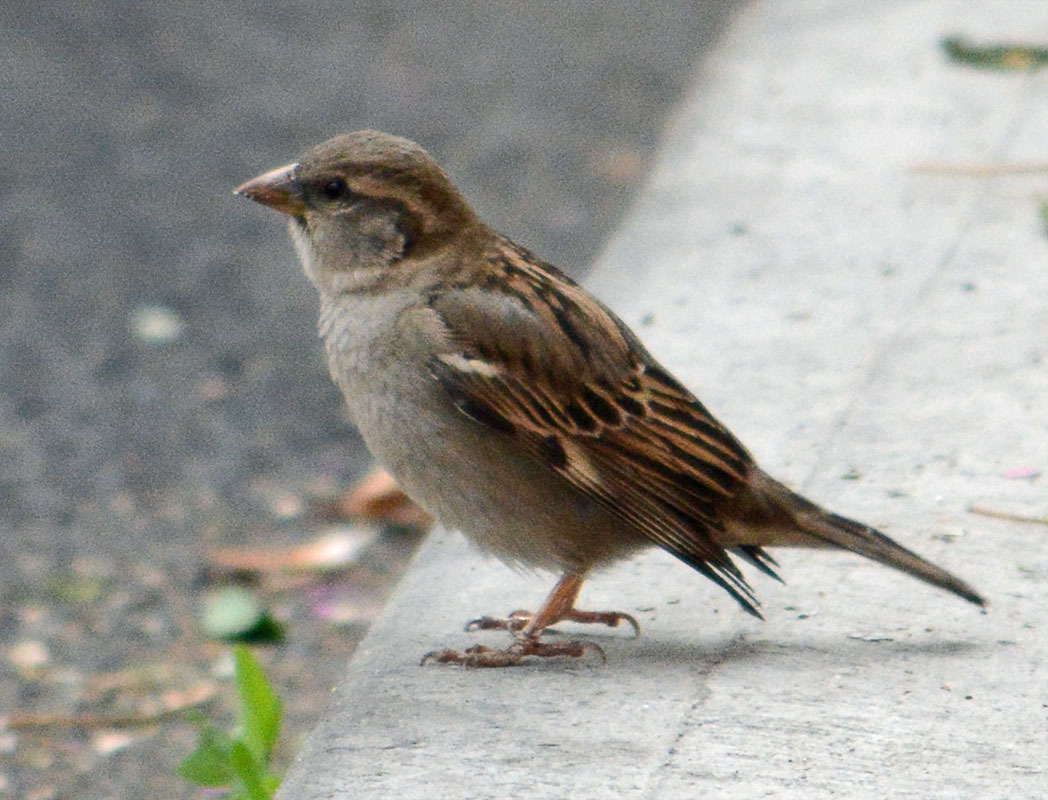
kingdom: Animalia
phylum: Chordata
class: Aves
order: Passeriformes
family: Passeridae
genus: Passer
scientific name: Passer domesticus
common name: House sparrow
